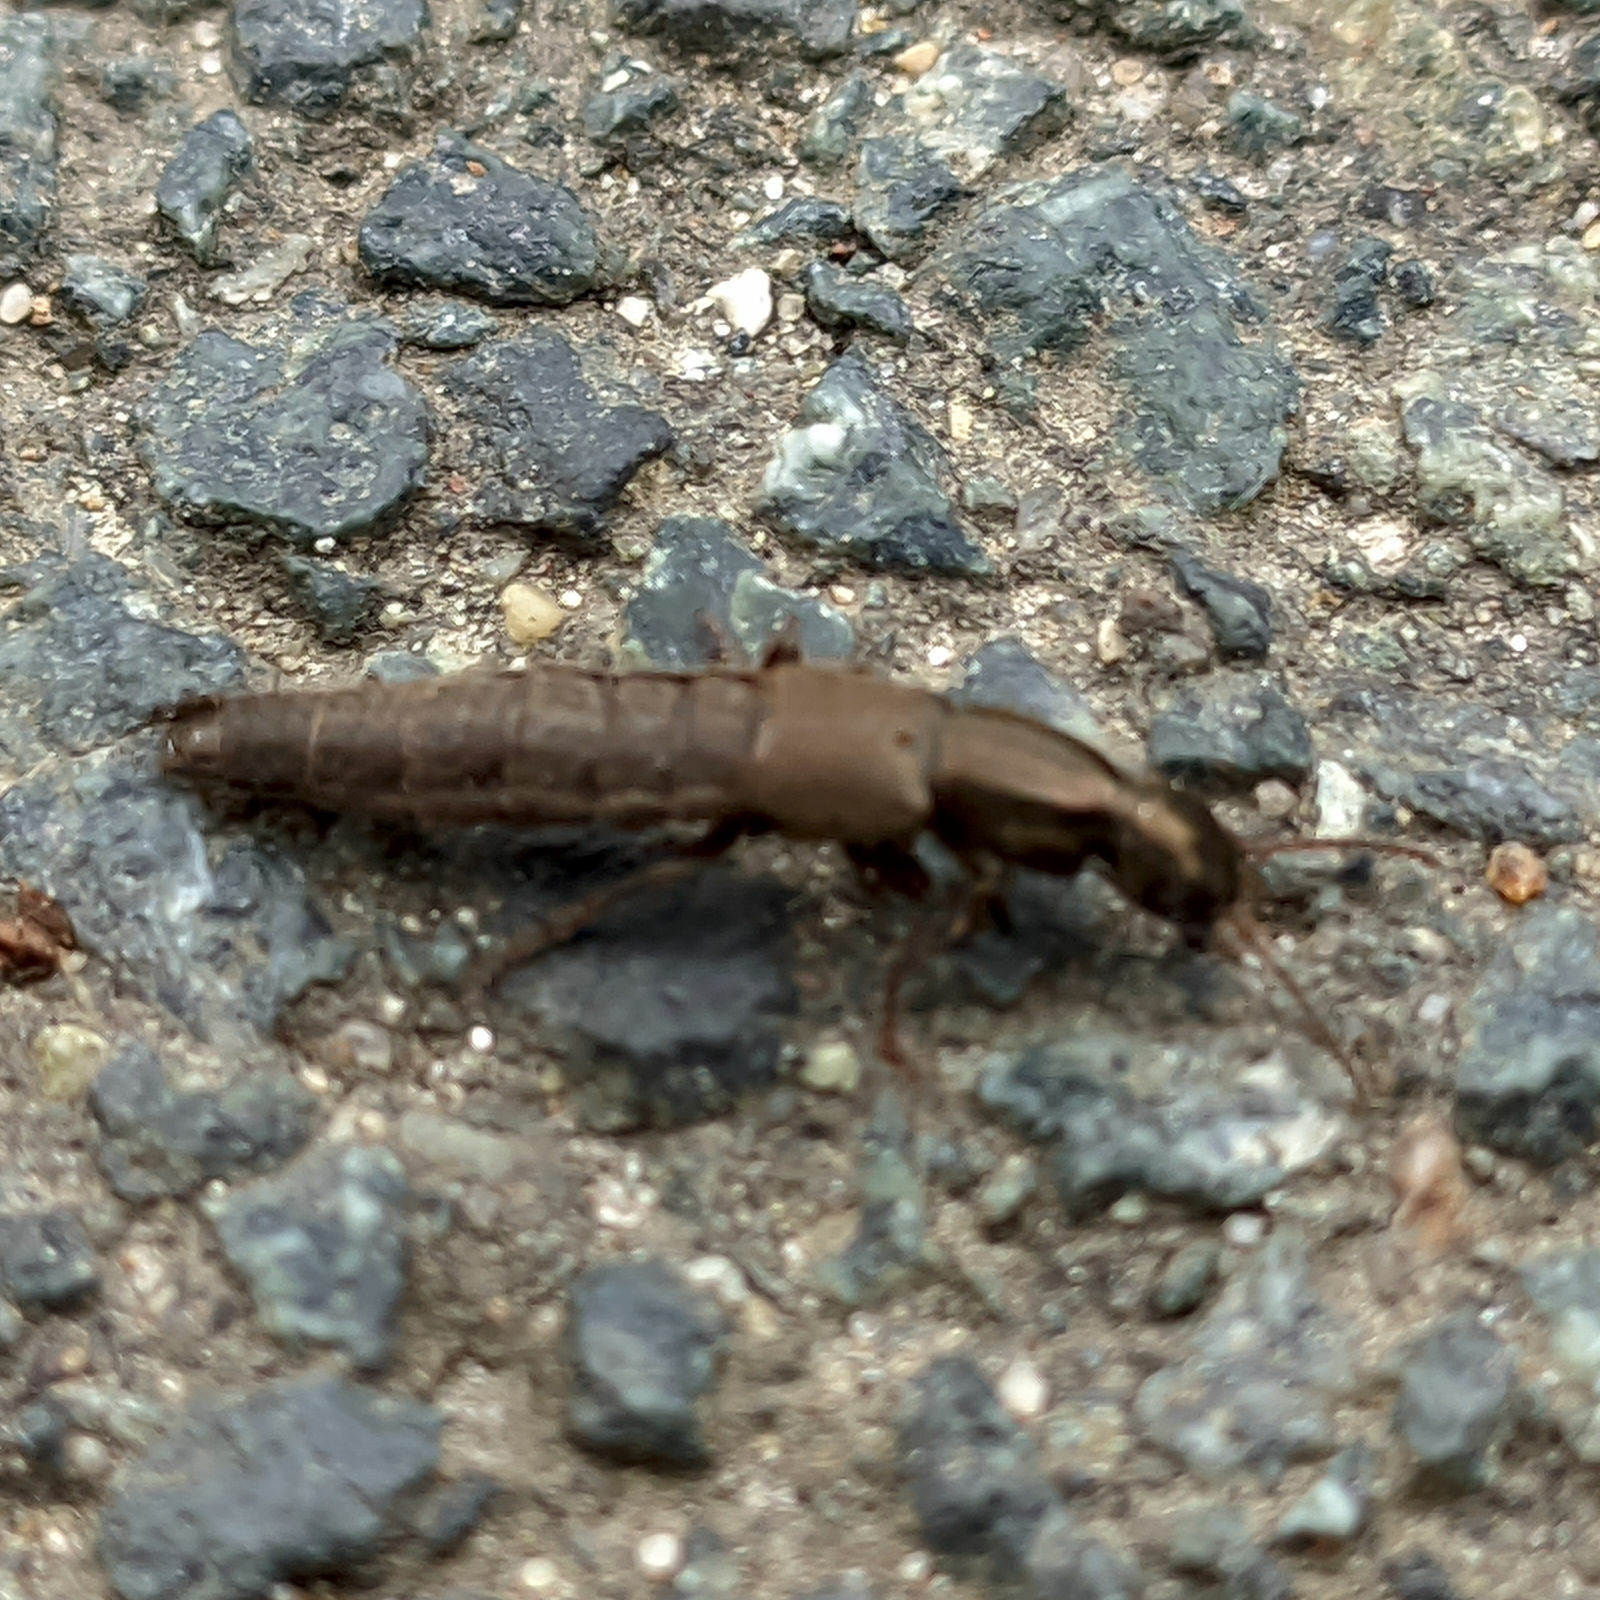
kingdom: Animalia
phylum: Arthropoda
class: Insecta
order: Coleoptera
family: Staphylinidae
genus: Ocypus
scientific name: Ocypus aeneocephalus
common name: Staph beetle
